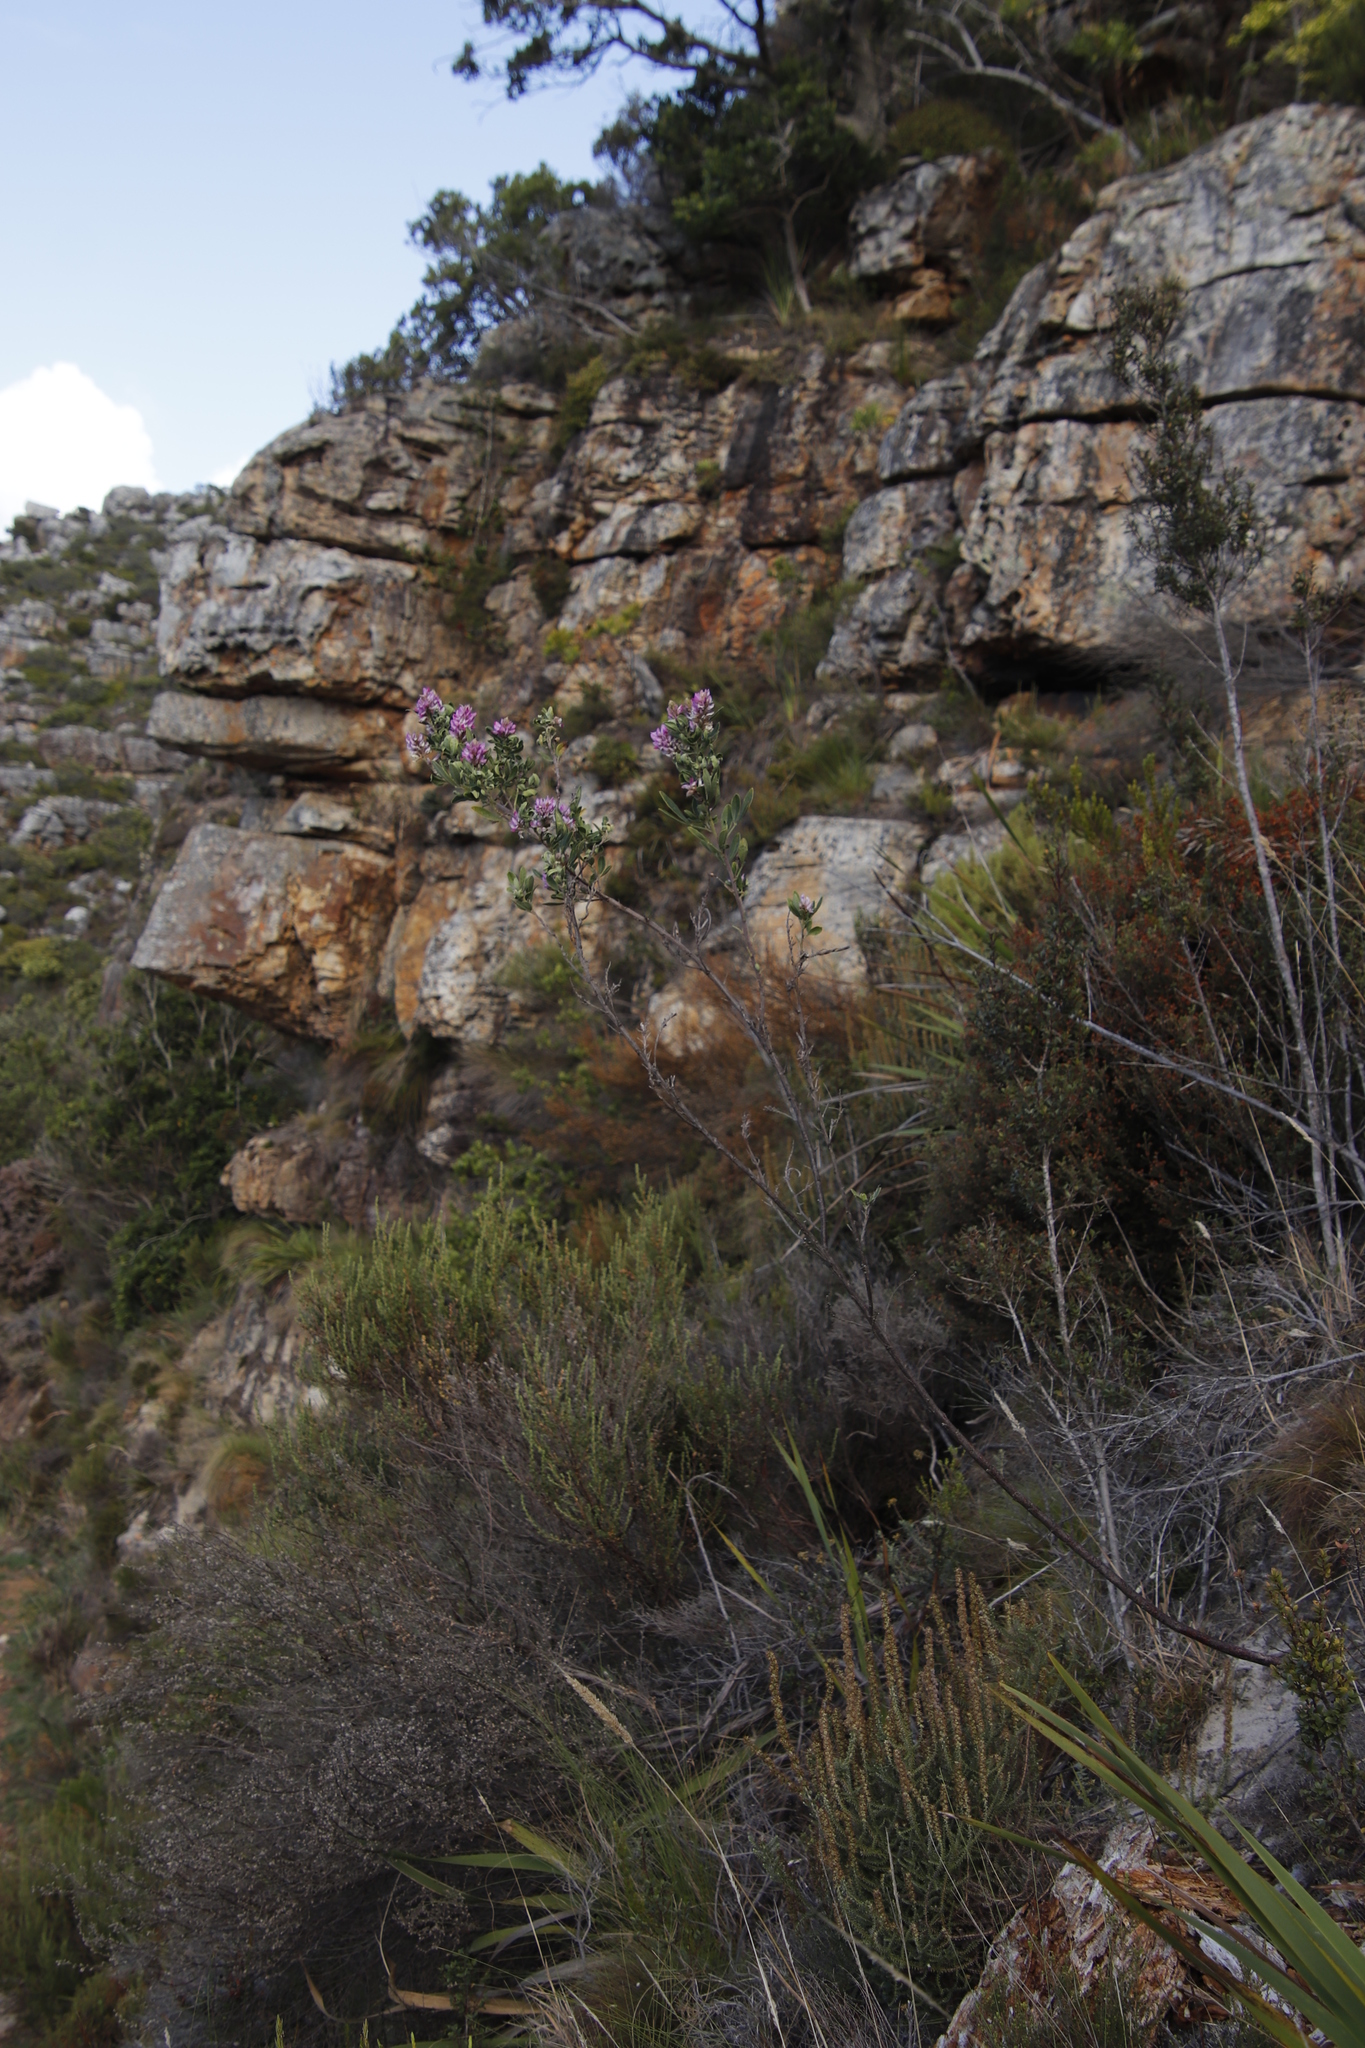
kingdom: Plantae
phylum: Tracheophyta
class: Magnoliopsida
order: Fabales
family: Fabaceae
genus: Indigofera
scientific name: Indigofera cytisoides
